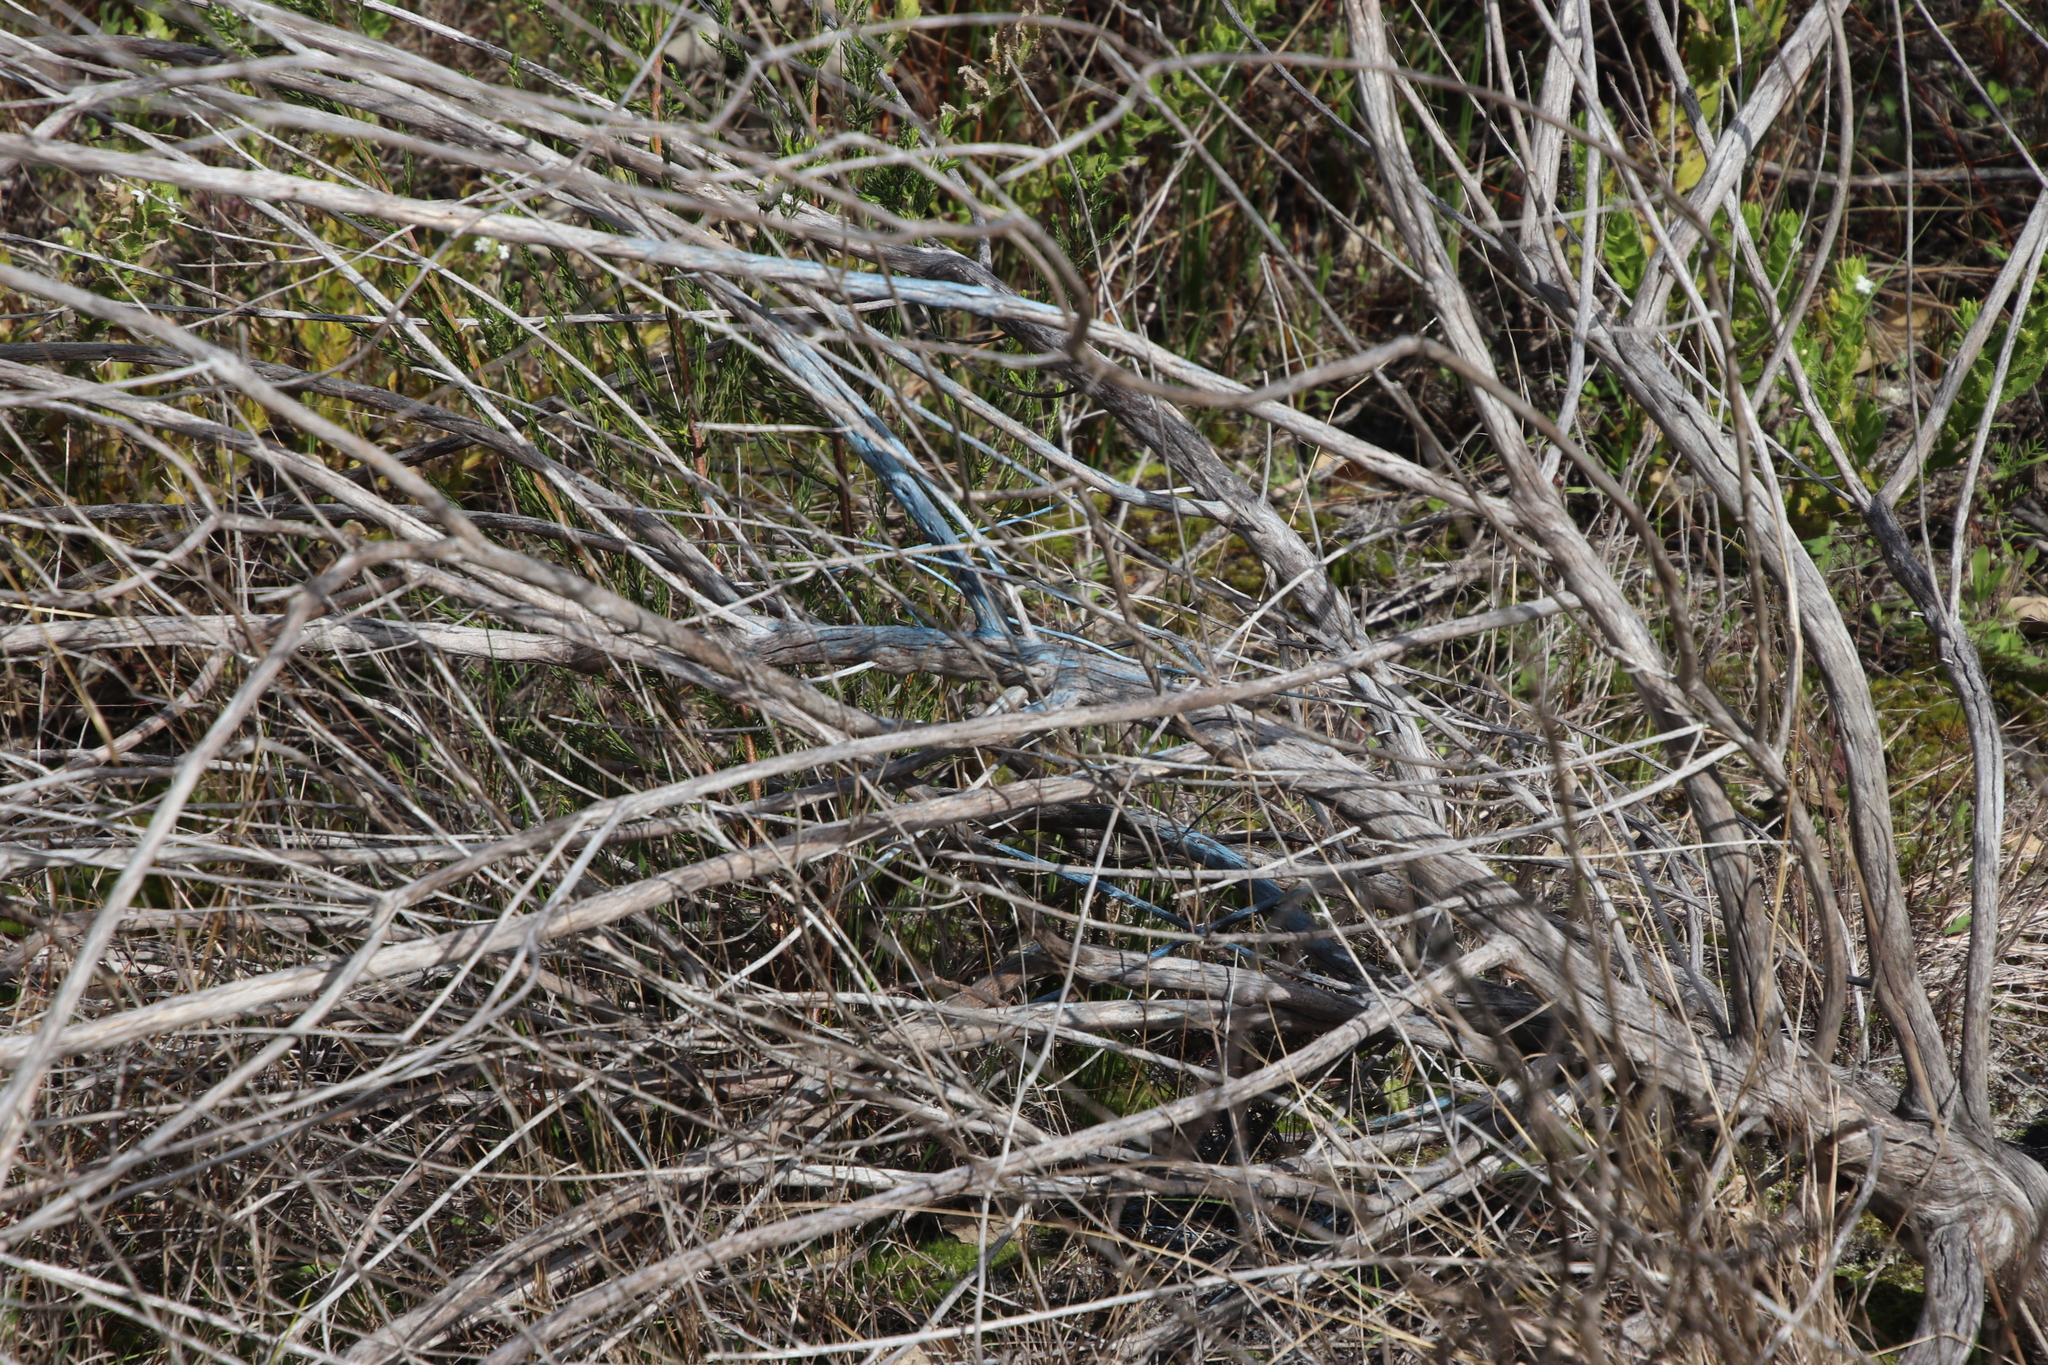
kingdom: Plantae
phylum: Tracheophyta
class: Magnoliopsida
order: Asterales
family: Asteraceae
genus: Metalasia
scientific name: Metalasia densa
